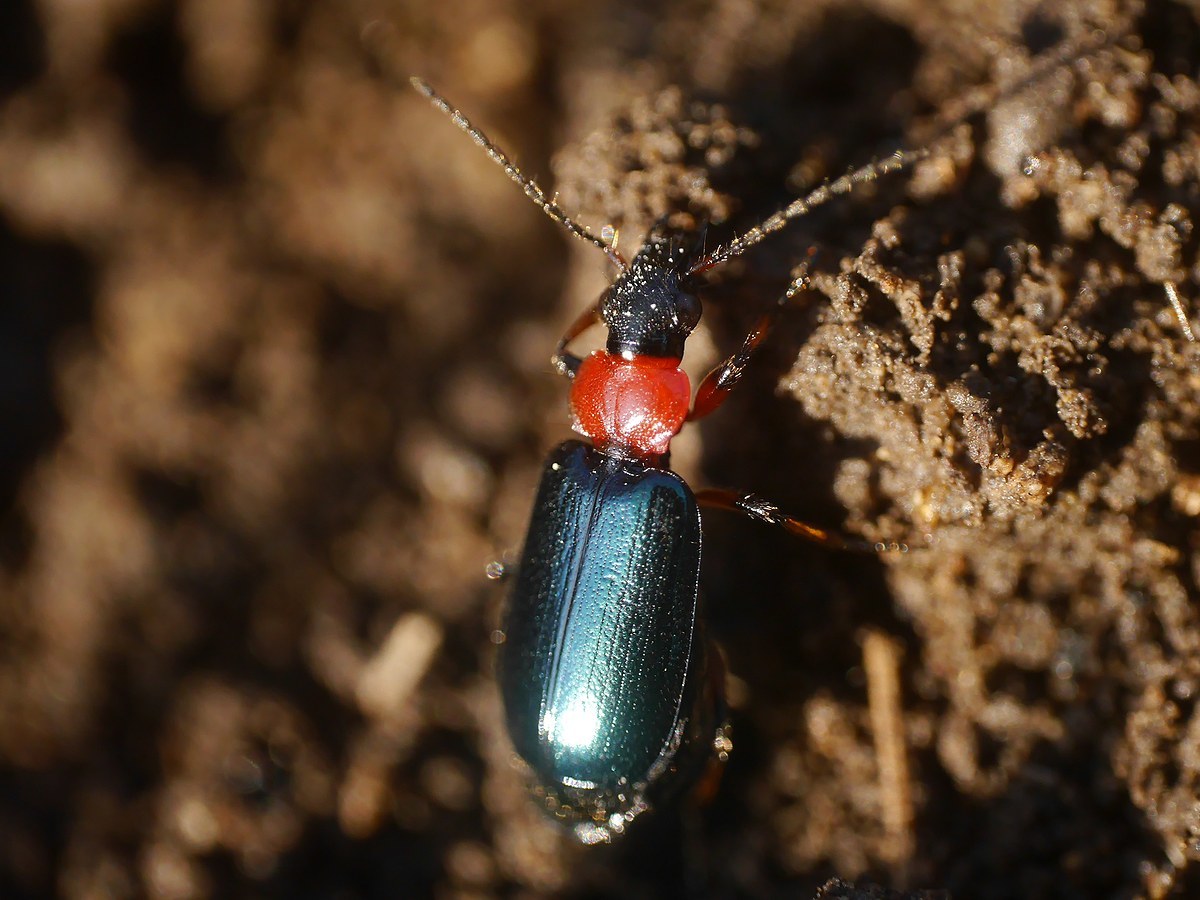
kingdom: Animalia
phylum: Arthropoda
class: Insecta
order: Coleoptera
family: Carabidae
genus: Lebia
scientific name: Lebia cyanocephala
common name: Blue plunderer
